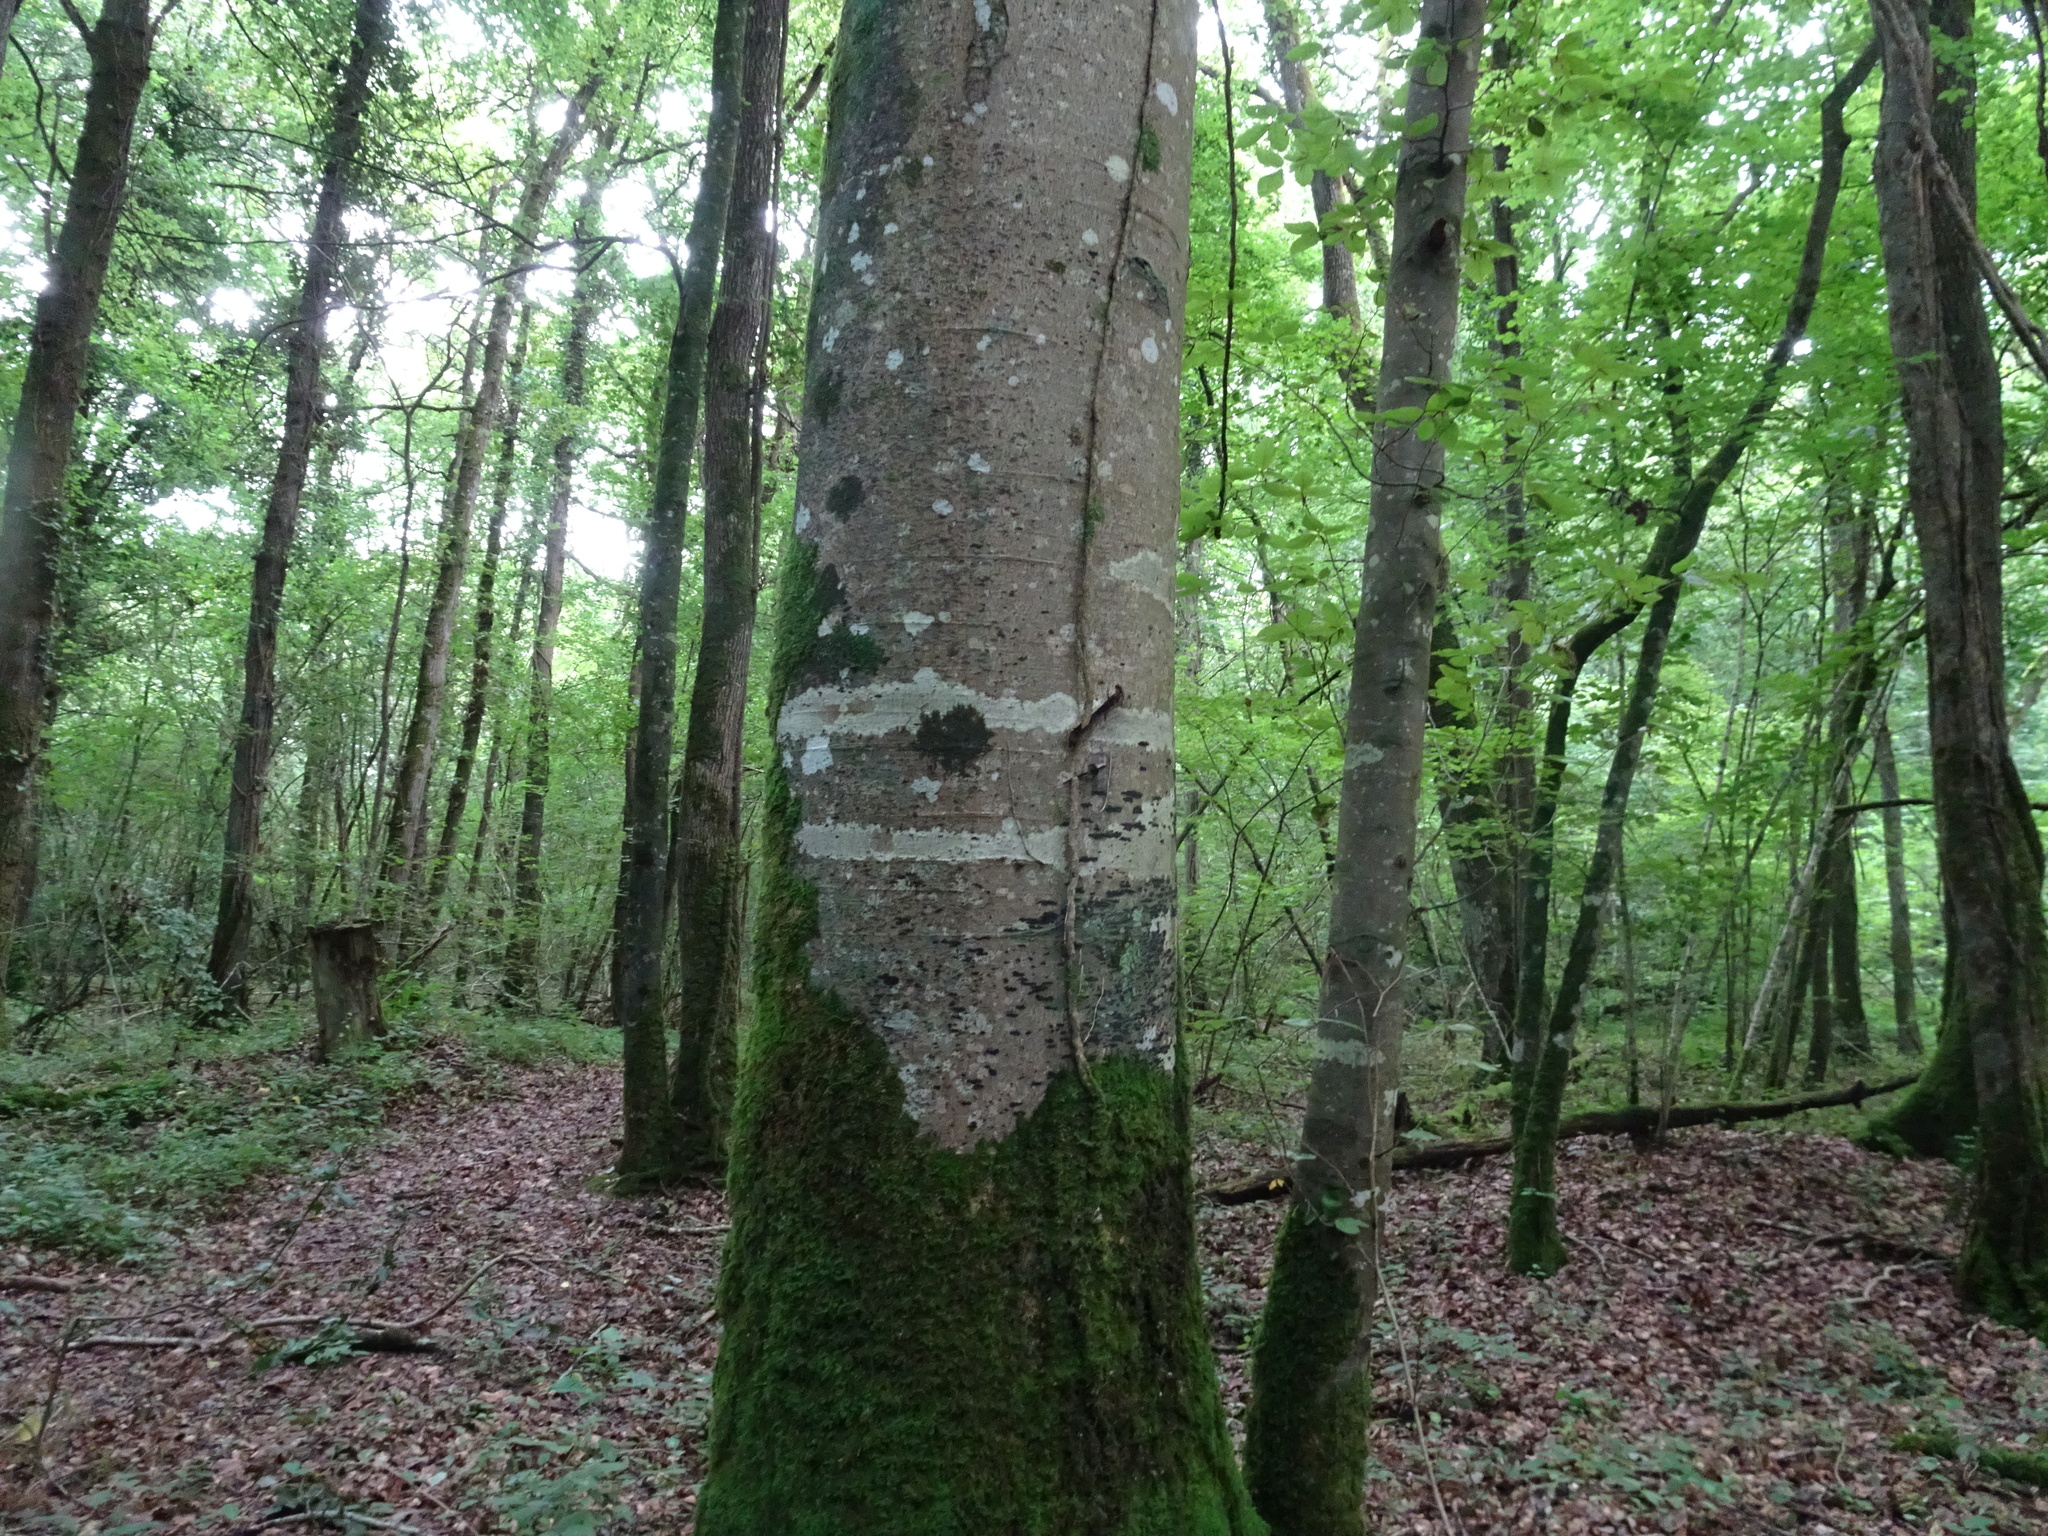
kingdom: Plantae
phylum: Tracheophyta
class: Magnoliopsida
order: Fagales
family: Fagaceae
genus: Fagus
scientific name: Fagus sylvatica
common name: Beech
